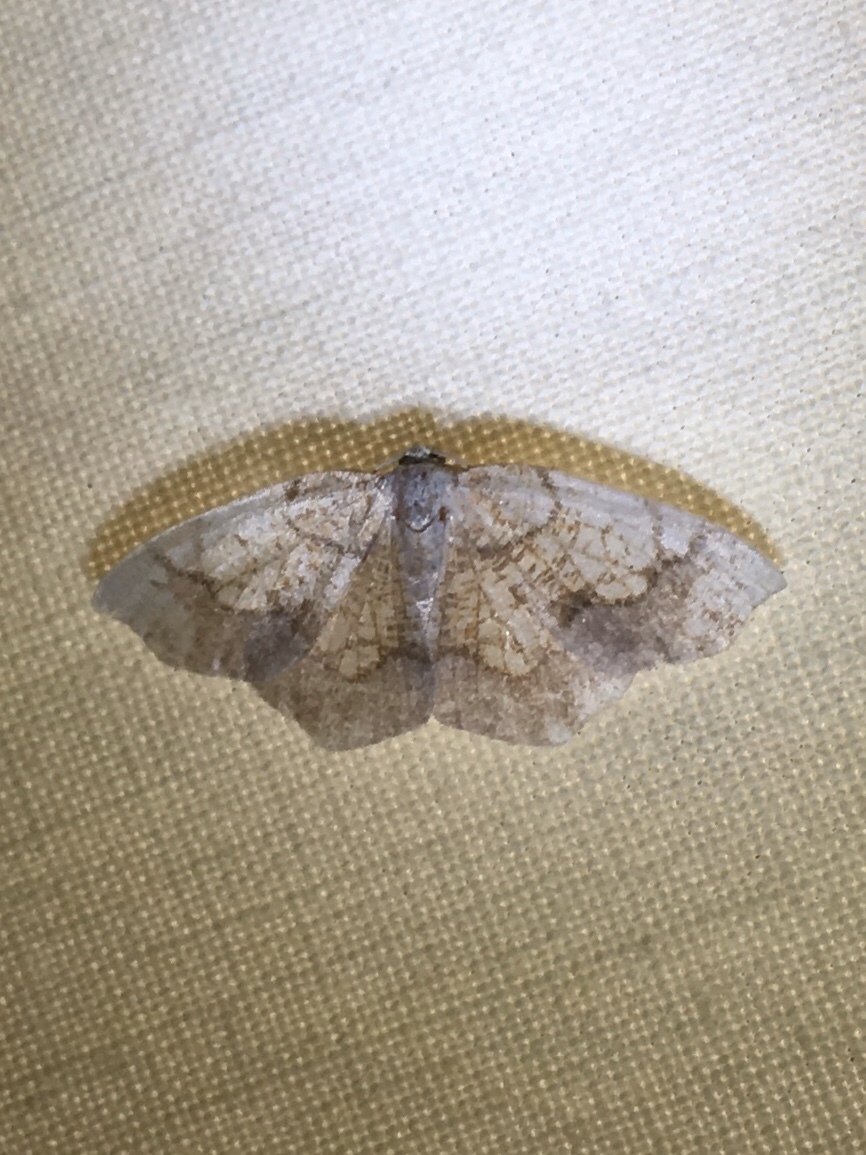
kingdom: Animalia
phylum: Arthropoda
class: Insecta
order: Lepidoptera
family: Geometridae
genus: Nematocampa
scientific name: Nematocampa resistaria
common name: Horned spanworm moth
